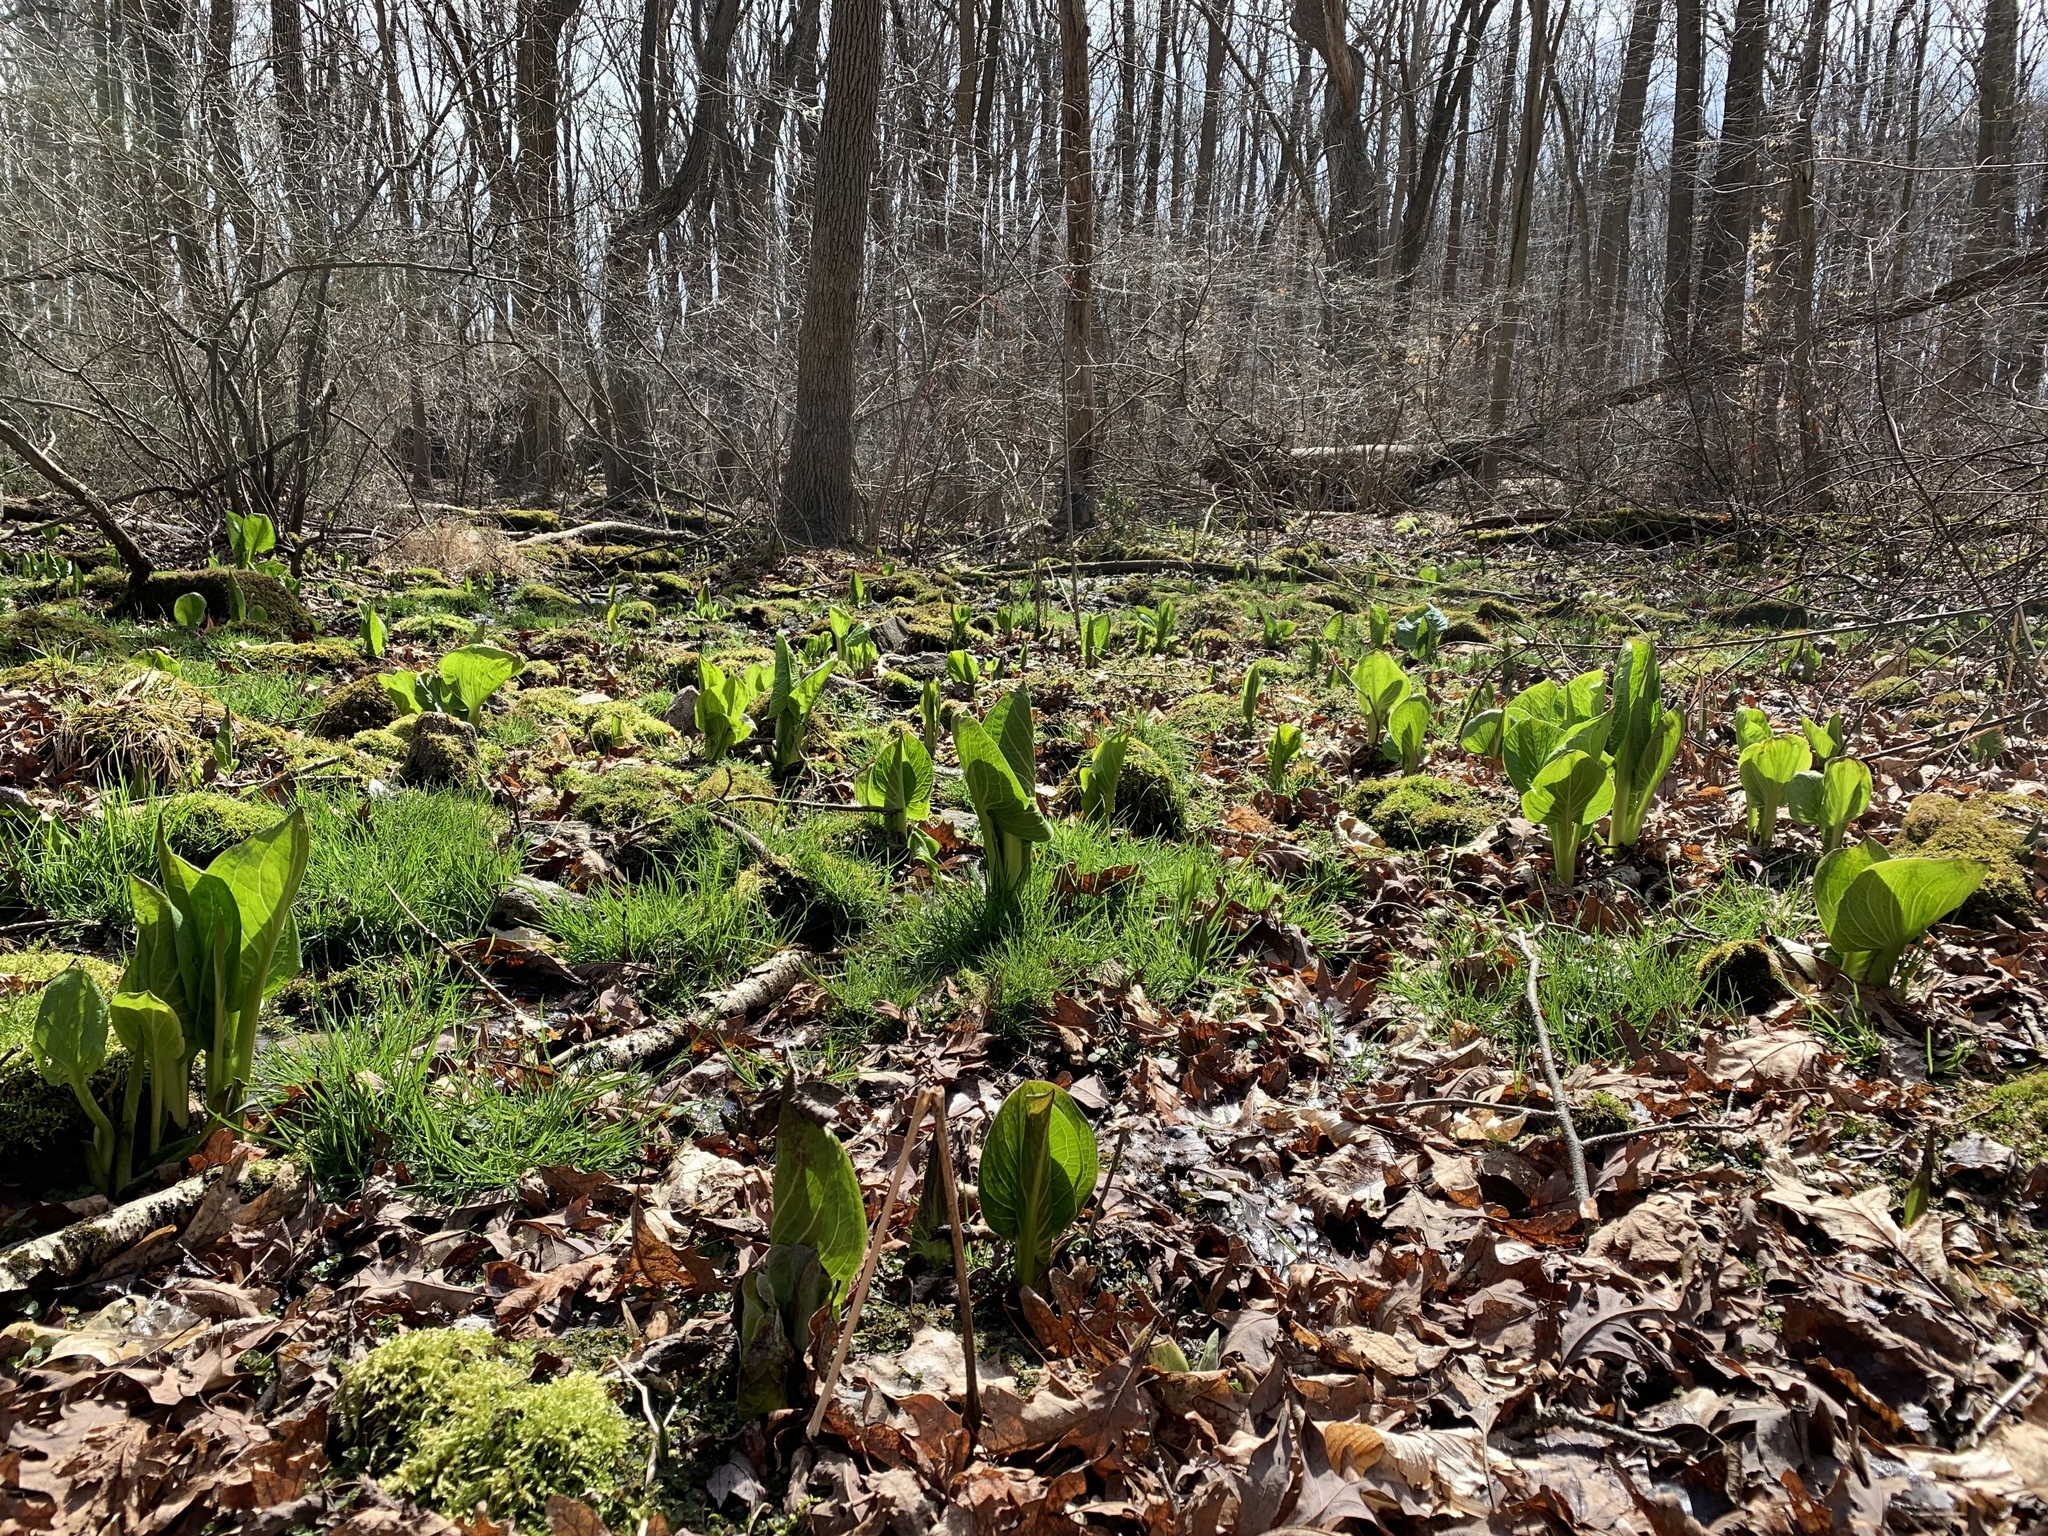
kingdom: Plantae
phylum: Tracheophyta
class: Liliopsida
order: Alismatales
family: Araceae
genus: Symplocarpus
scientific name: Symplocarpus foetidus
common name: Eastern skunk cabbage
